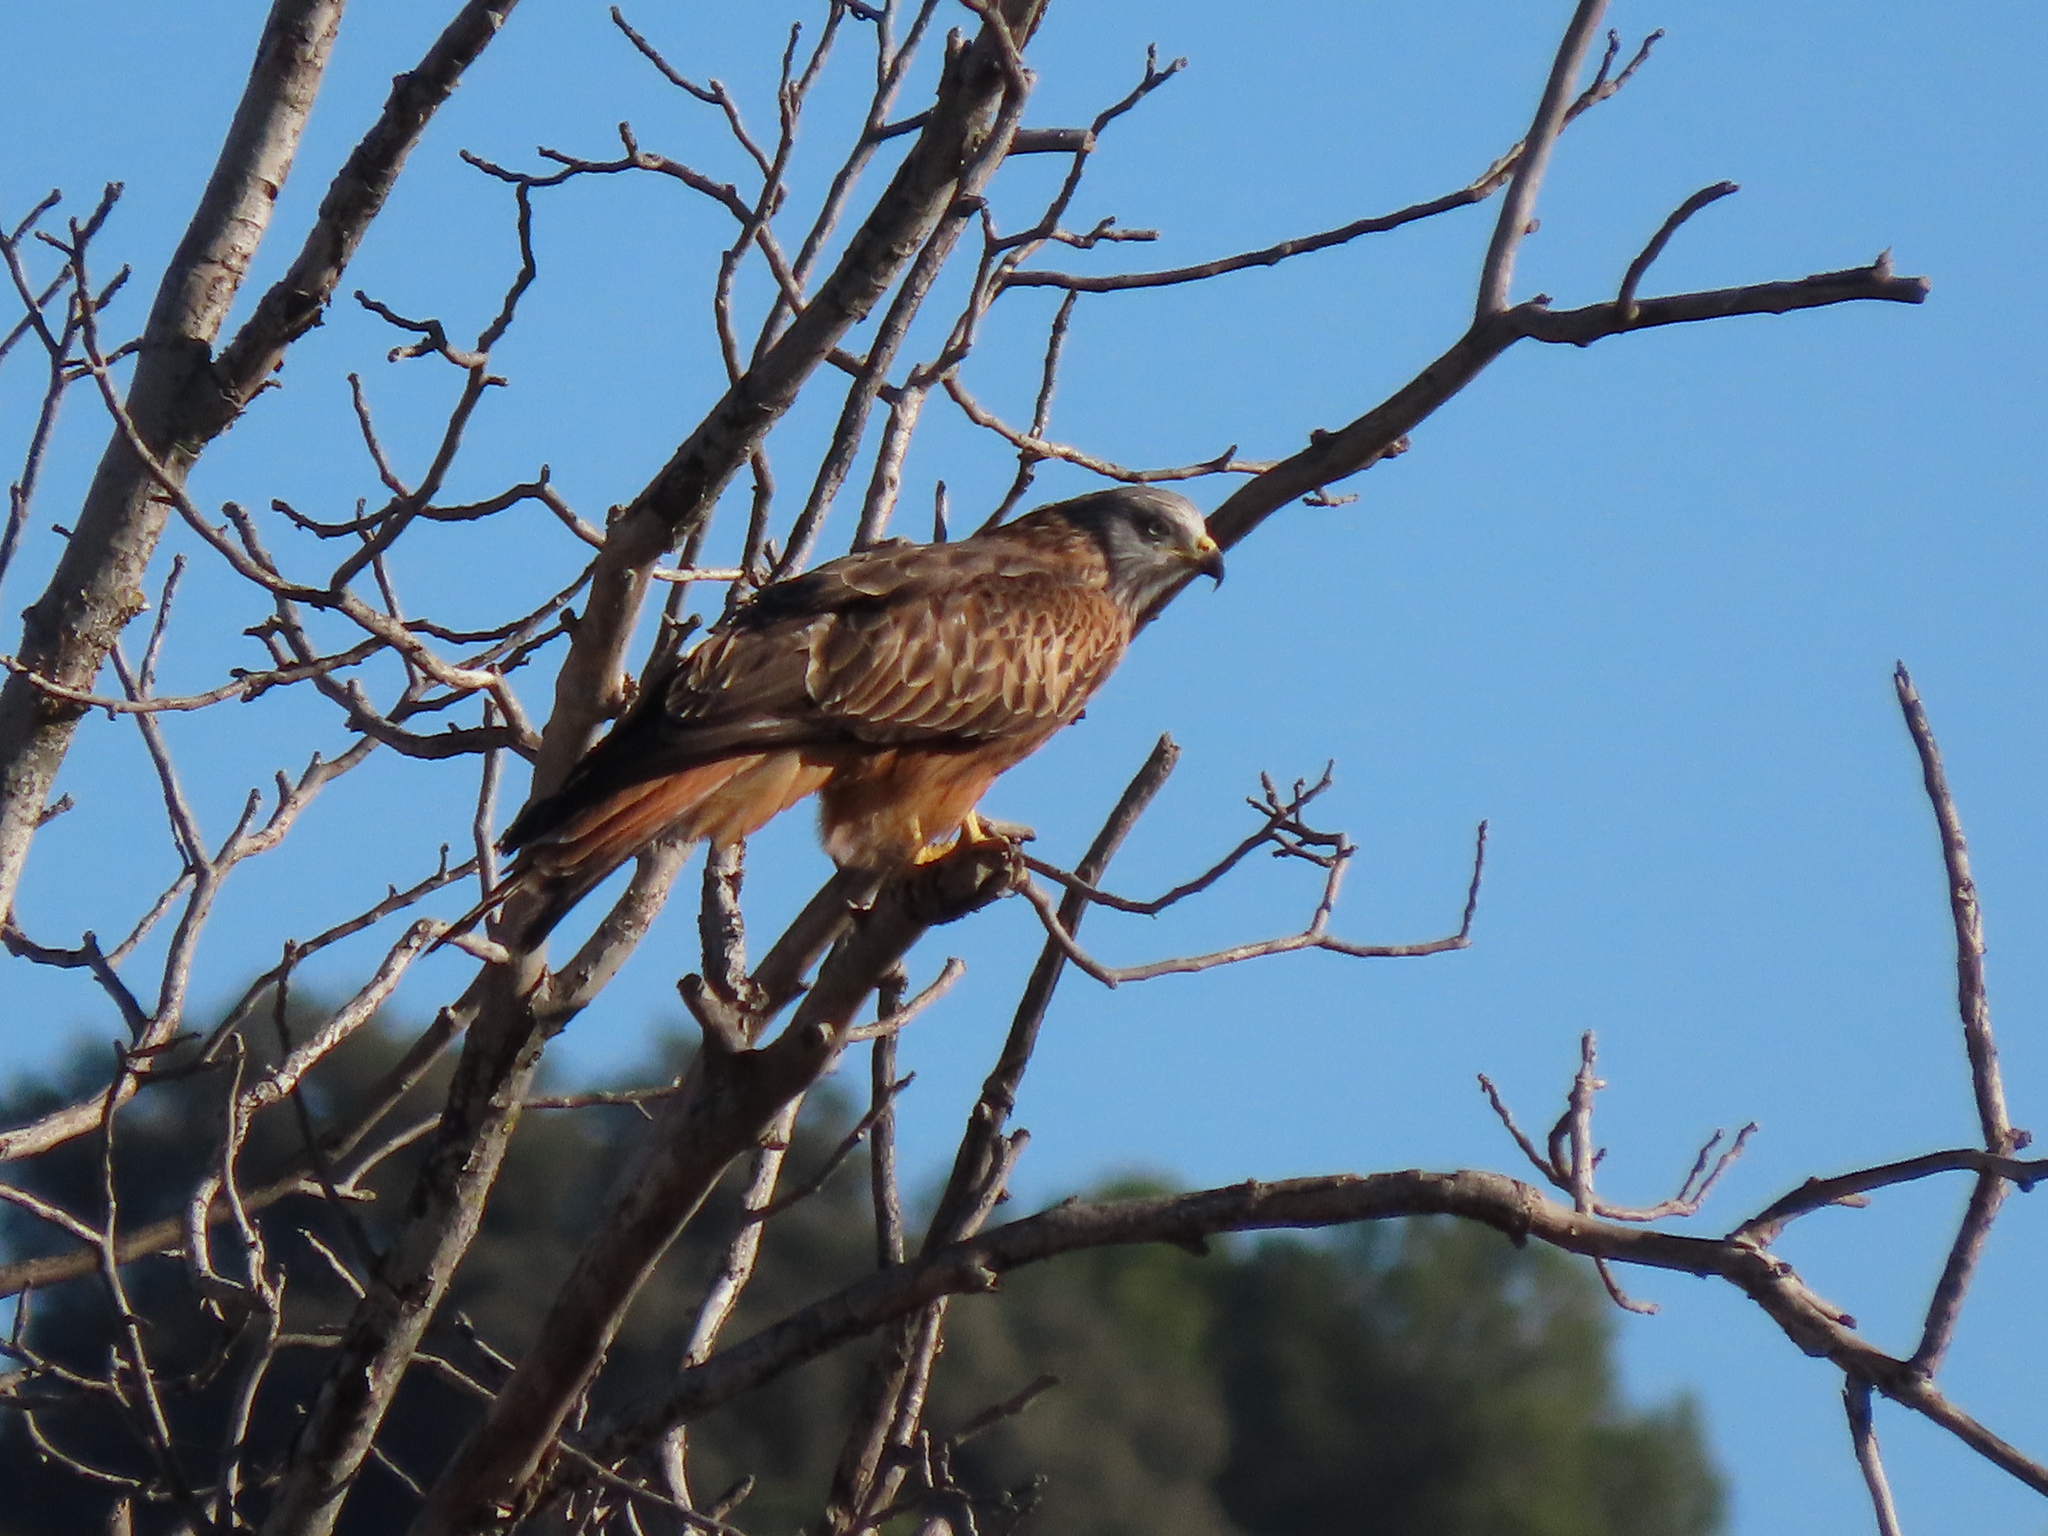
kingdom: Animalia
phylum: Chordata
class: Aves
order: Accipitriformes
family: Accipitridae
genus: Milvus
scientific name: Milvus milvus
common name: Red kite
